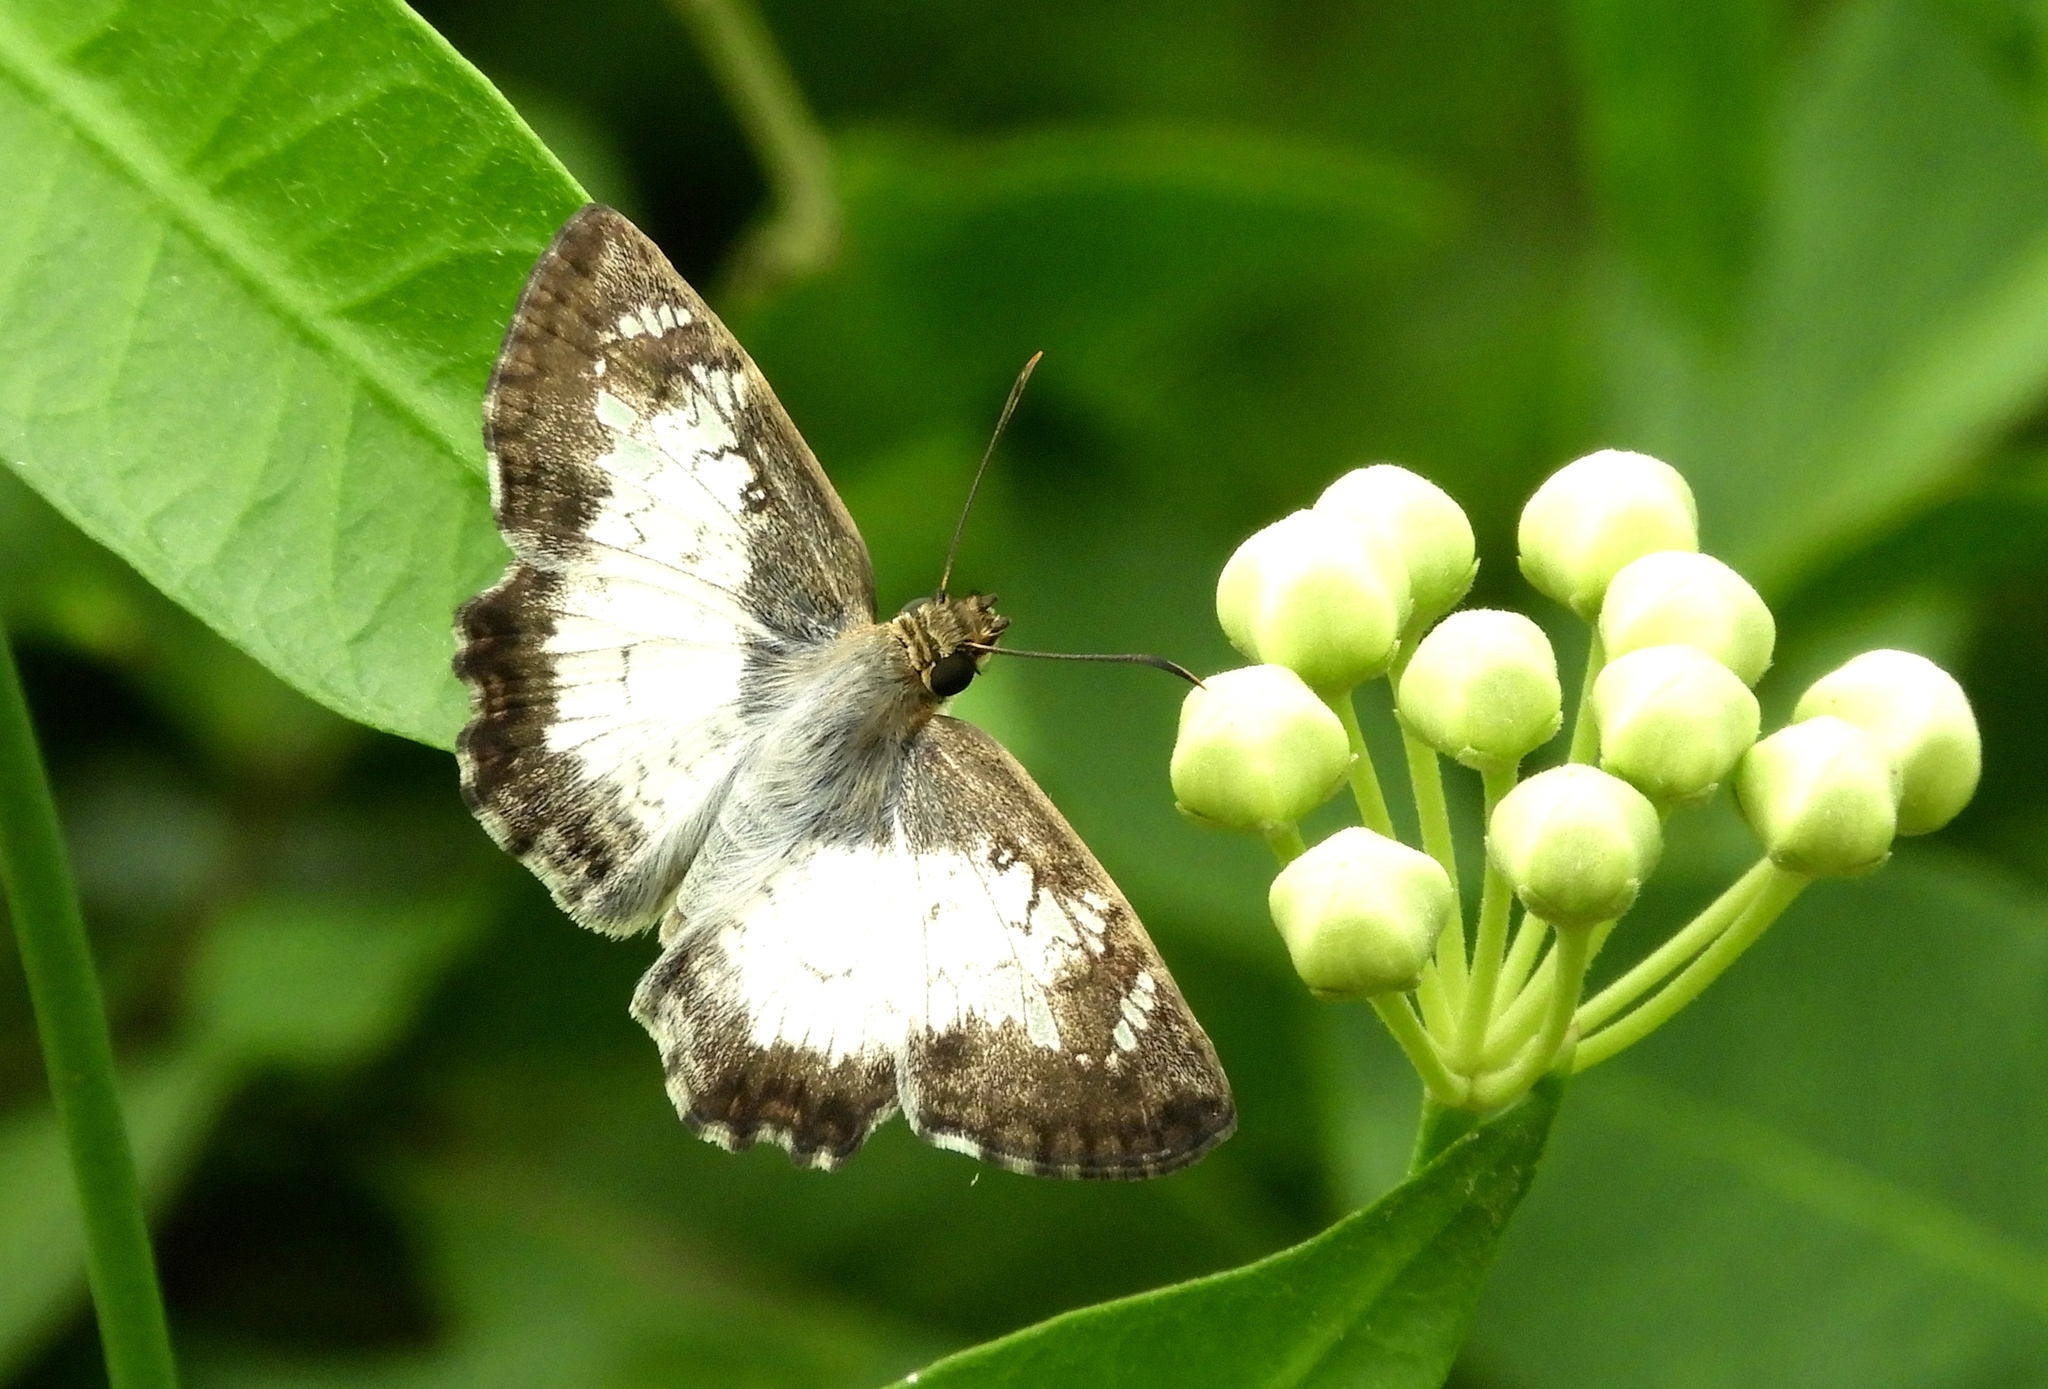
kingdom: Animalia
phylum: Arthropoda
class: Insecta
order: Lepidoptera
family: Hesperiidae
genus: Antigonus
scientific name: Antigonus emorsa
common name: White spurwing
